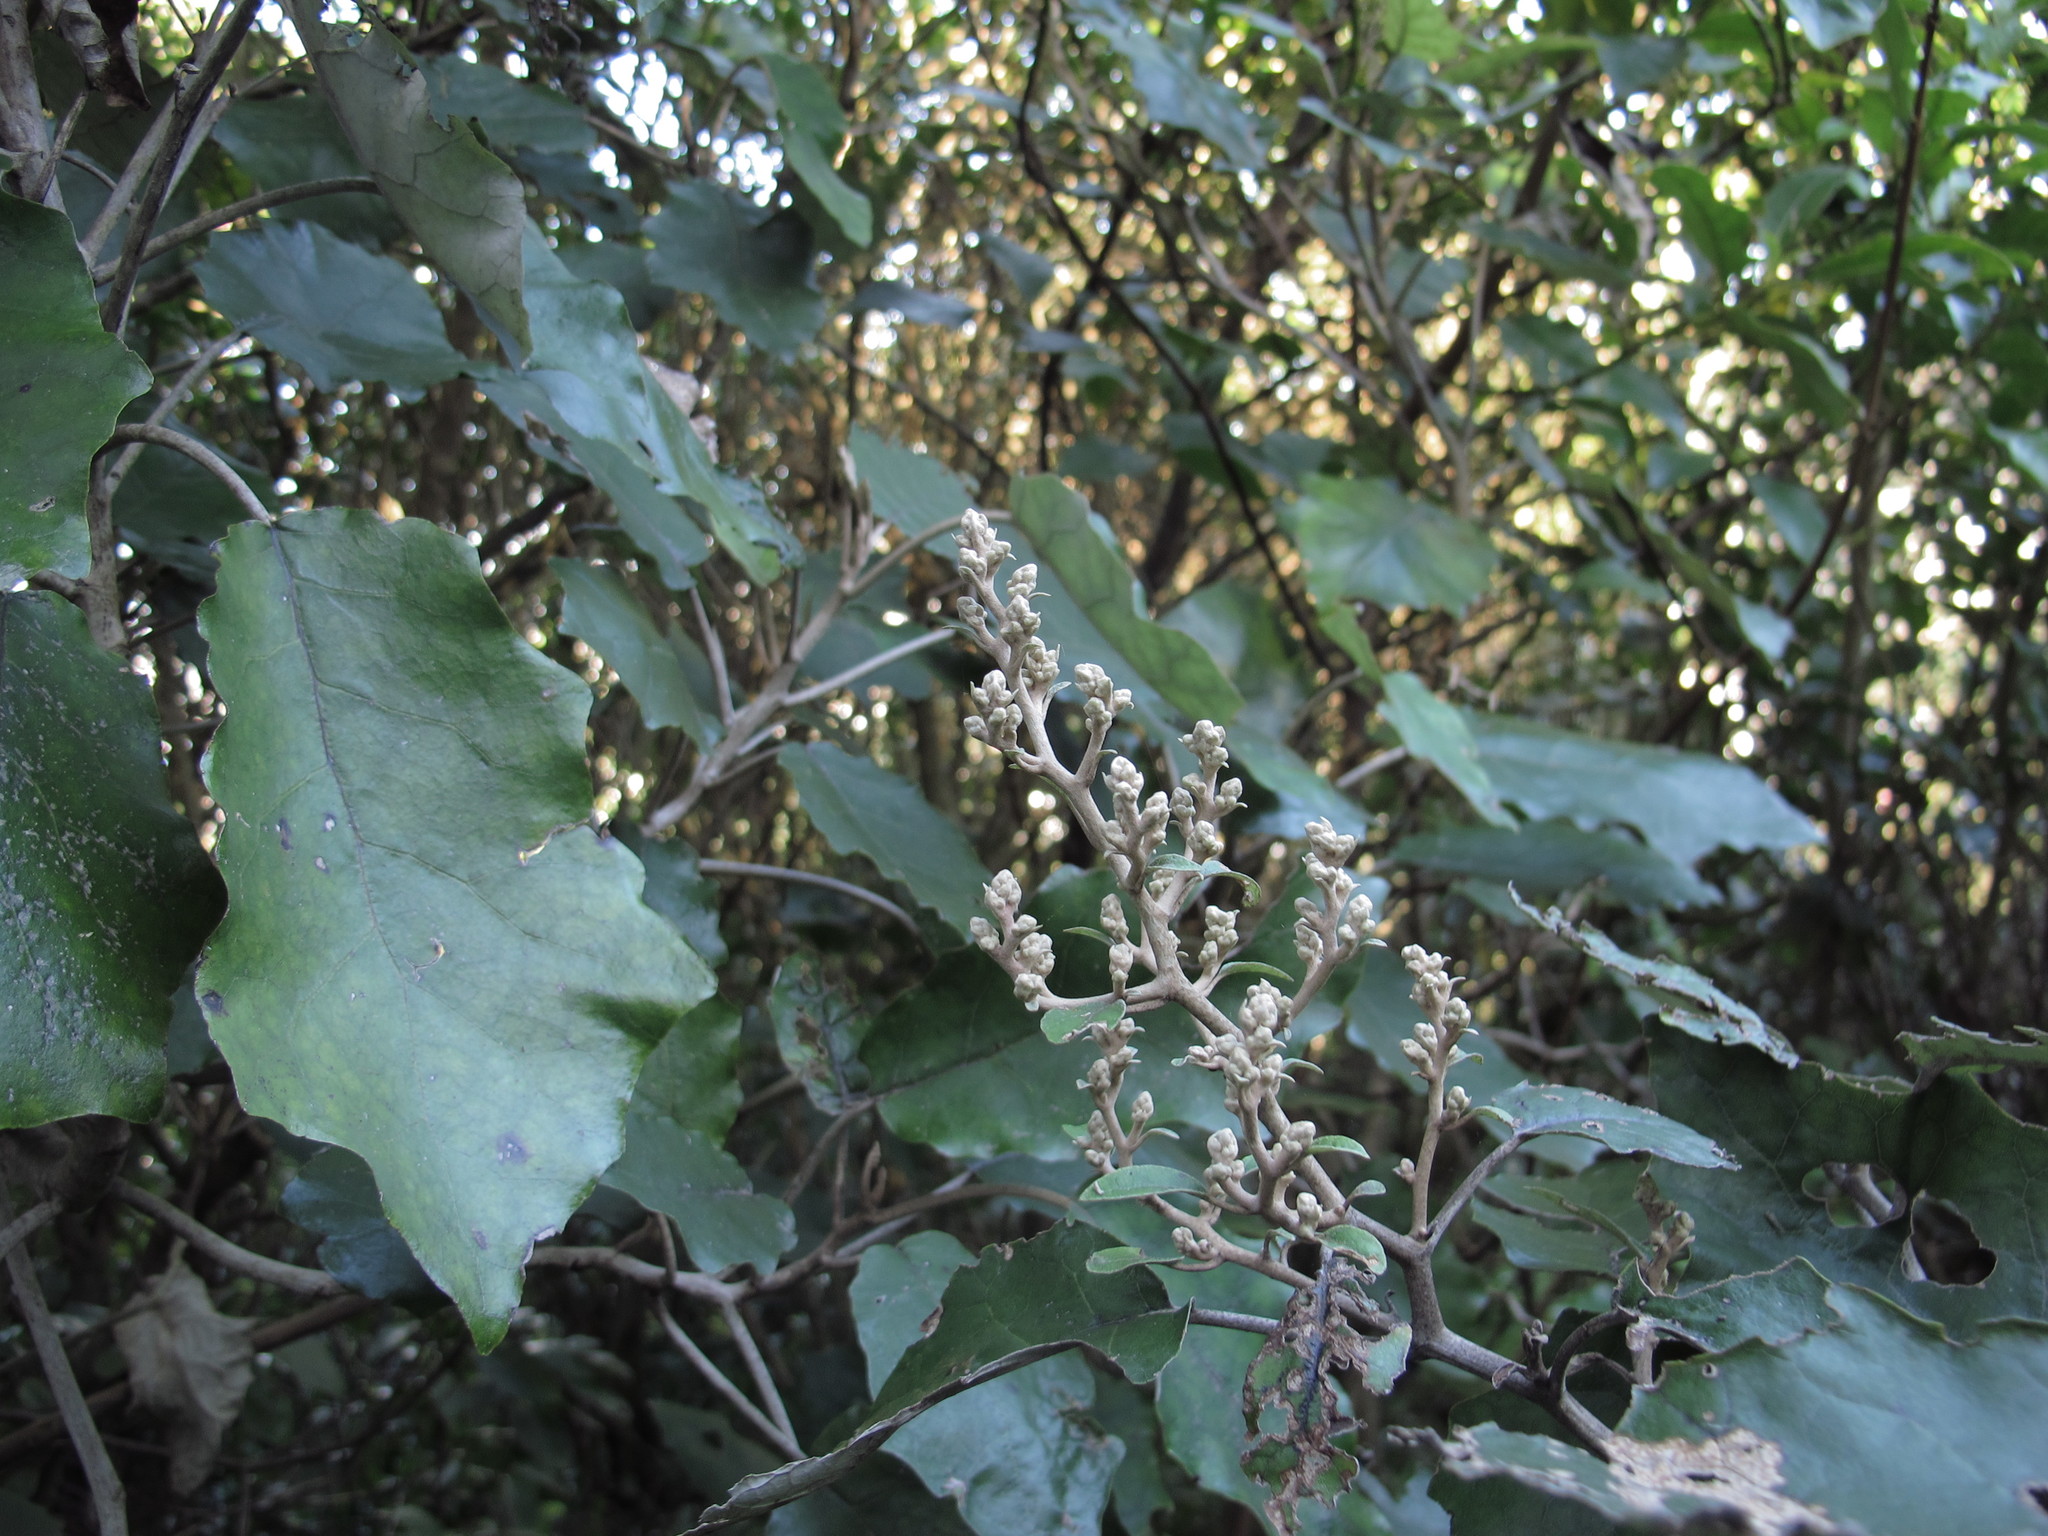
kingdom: Plantae
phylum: Tracheophyta
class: Magnoliopsida
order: Asterales
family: Asteraceae
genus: Brachyglottis
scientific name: Brachyglottis repanda
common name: Hedge ragwort
